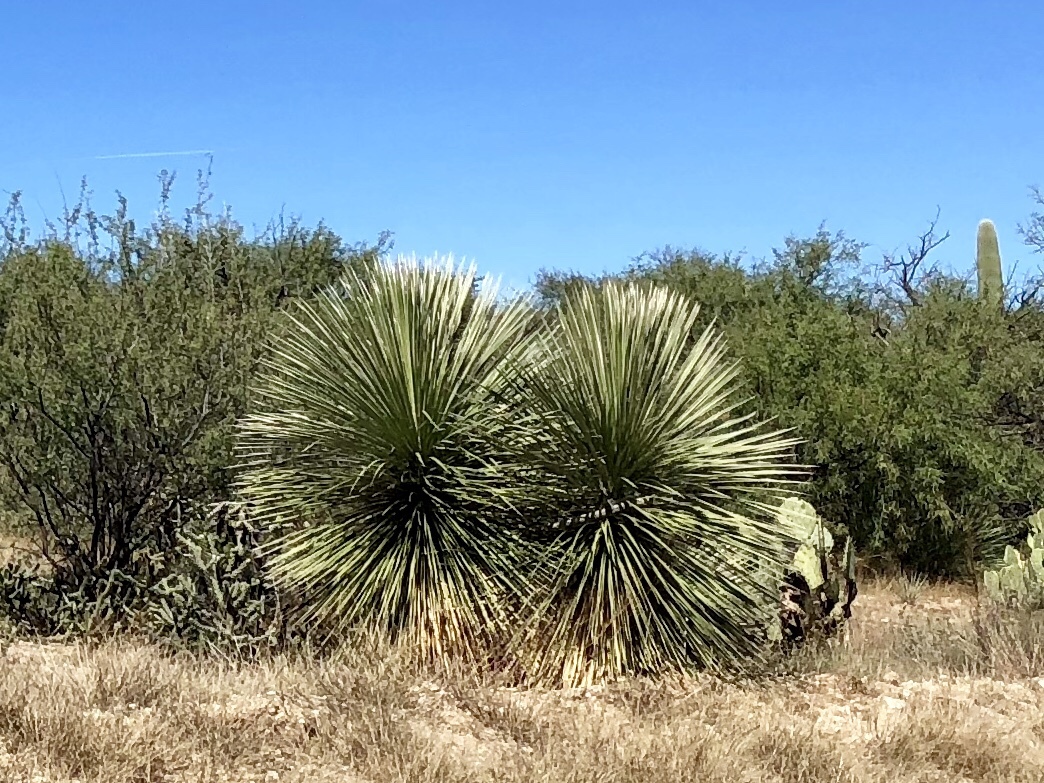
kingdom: Plantae
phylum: Tracheophyta
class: Liliopsida
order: Asparagales
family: Asparagaceae
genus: Yucca
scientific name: Yucca elata
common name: Palmella
